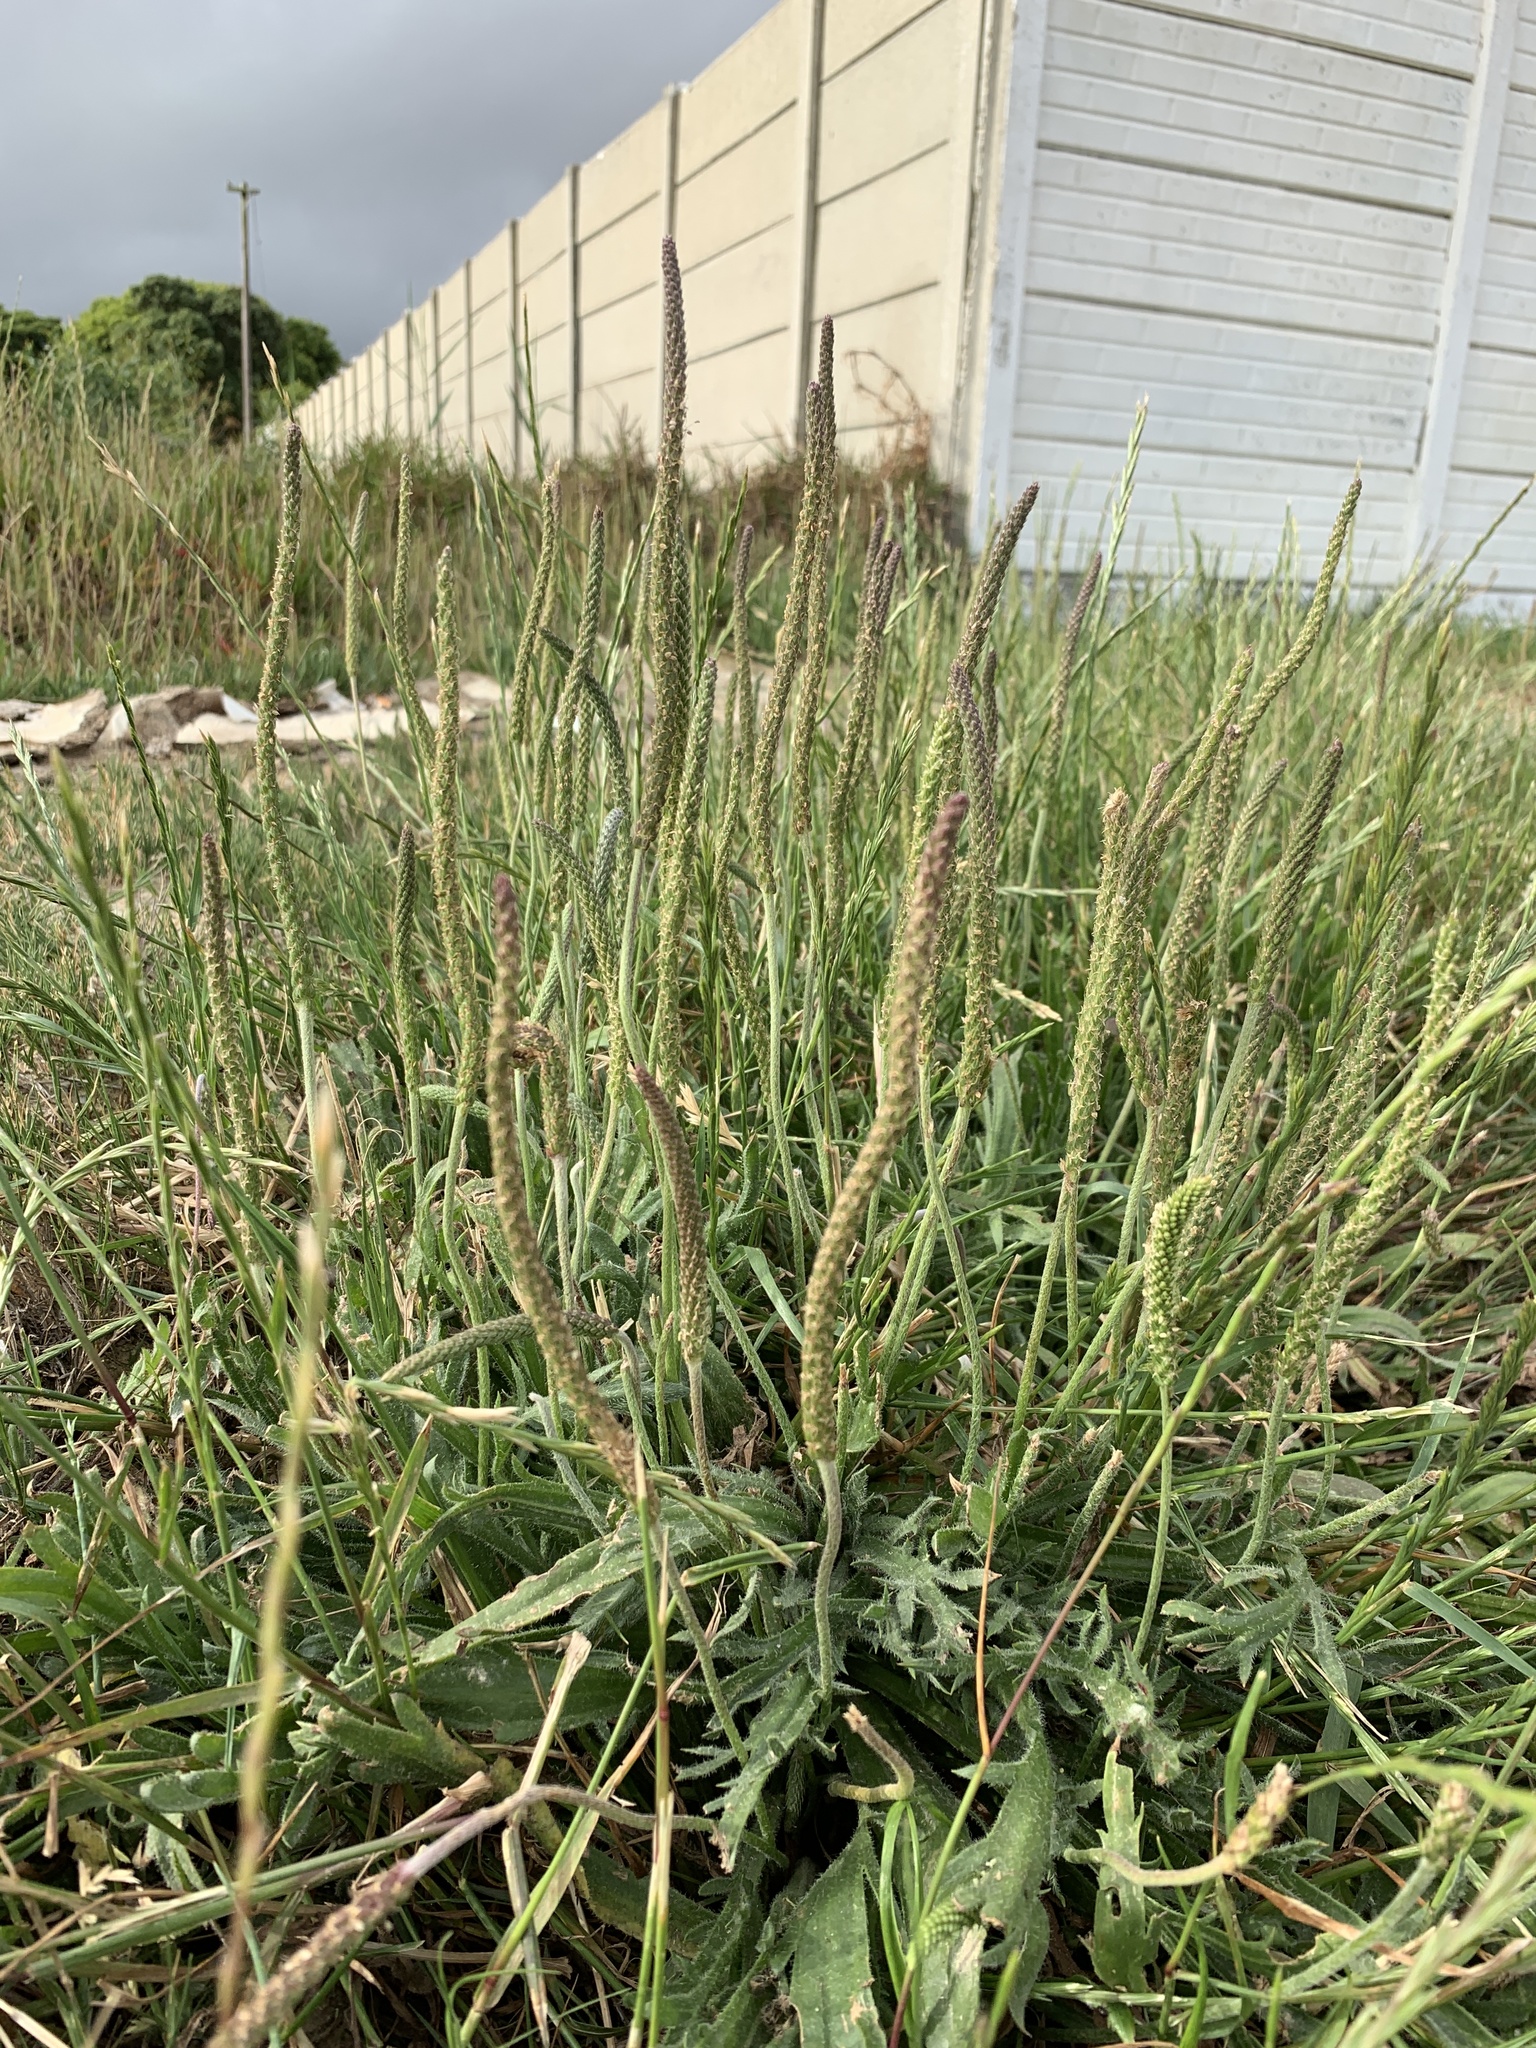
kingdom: Plantae
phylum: Tracheophyta
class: Magnoliopsida
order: Lamiales
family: Plantaginaceae
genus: Plantago
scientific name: Plantago coronopus
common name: Buck's-horn plantain
